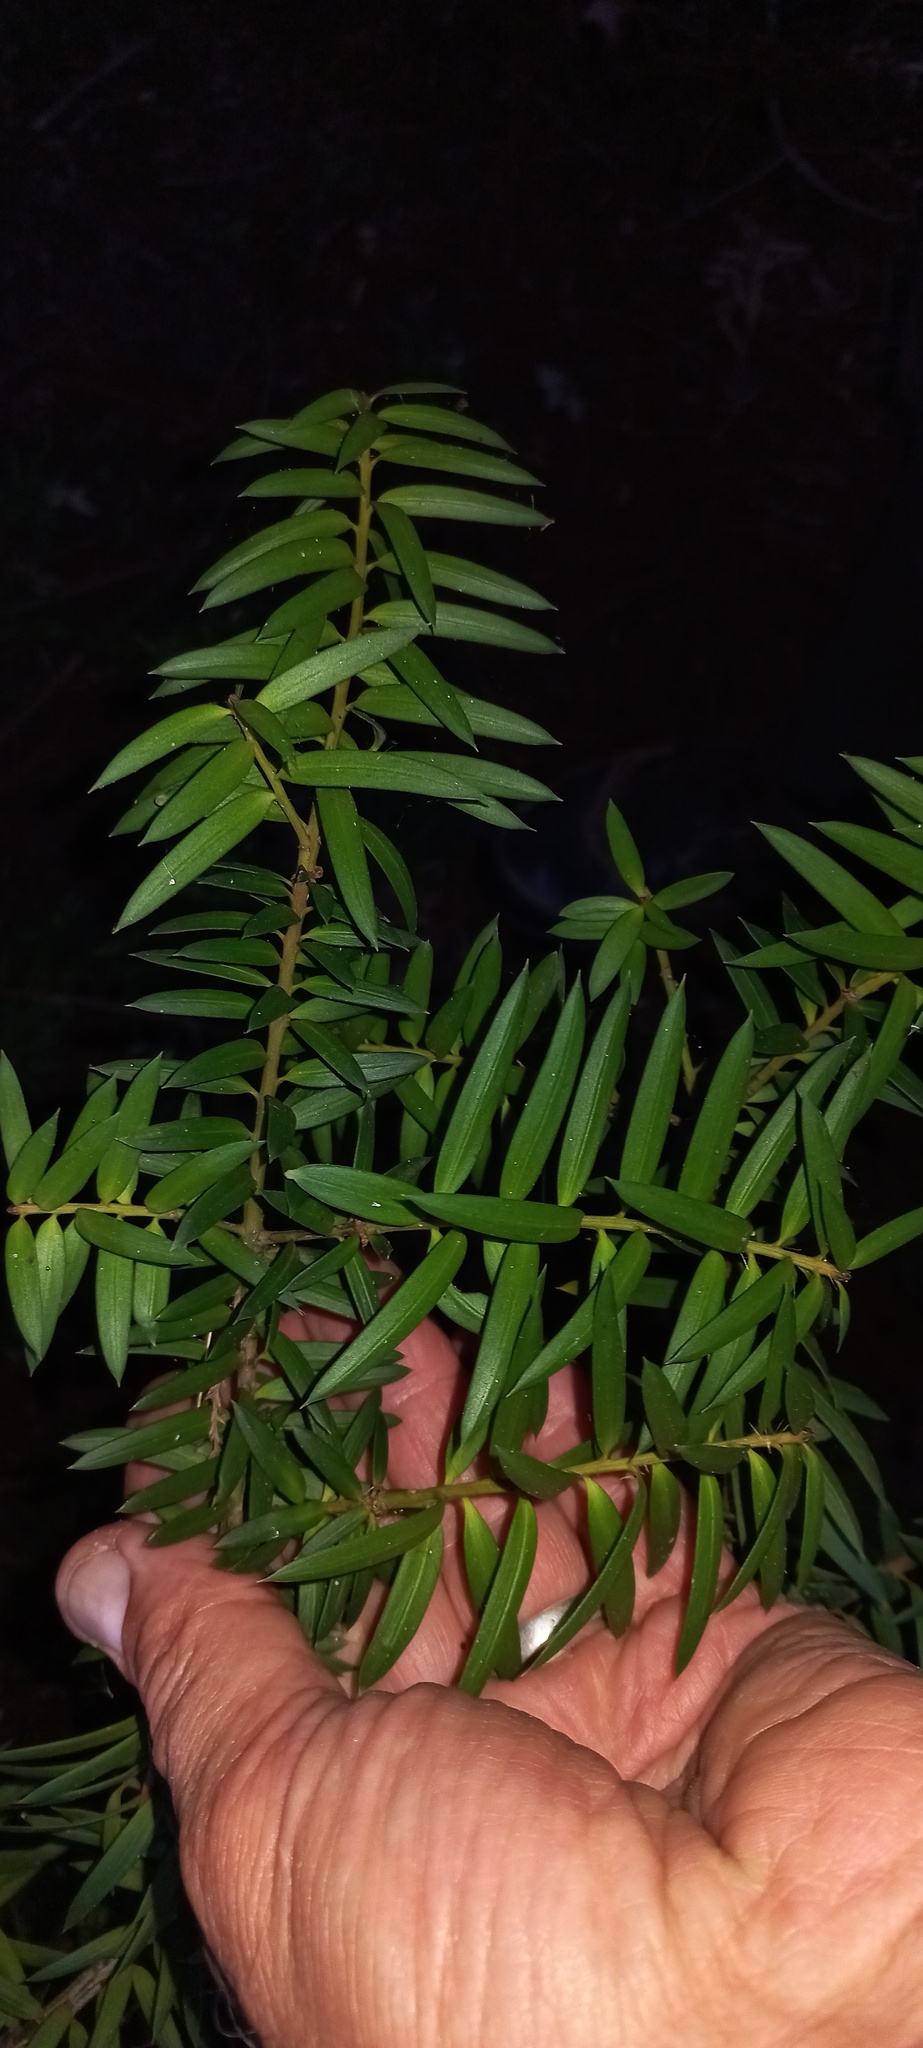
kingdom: Plantae
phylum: Tracheophyta
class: Pinopsida
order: Pinales
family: Podocarpaceae
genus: Podocarpus
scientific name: Podocarpus laetus
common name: Hall's totara
